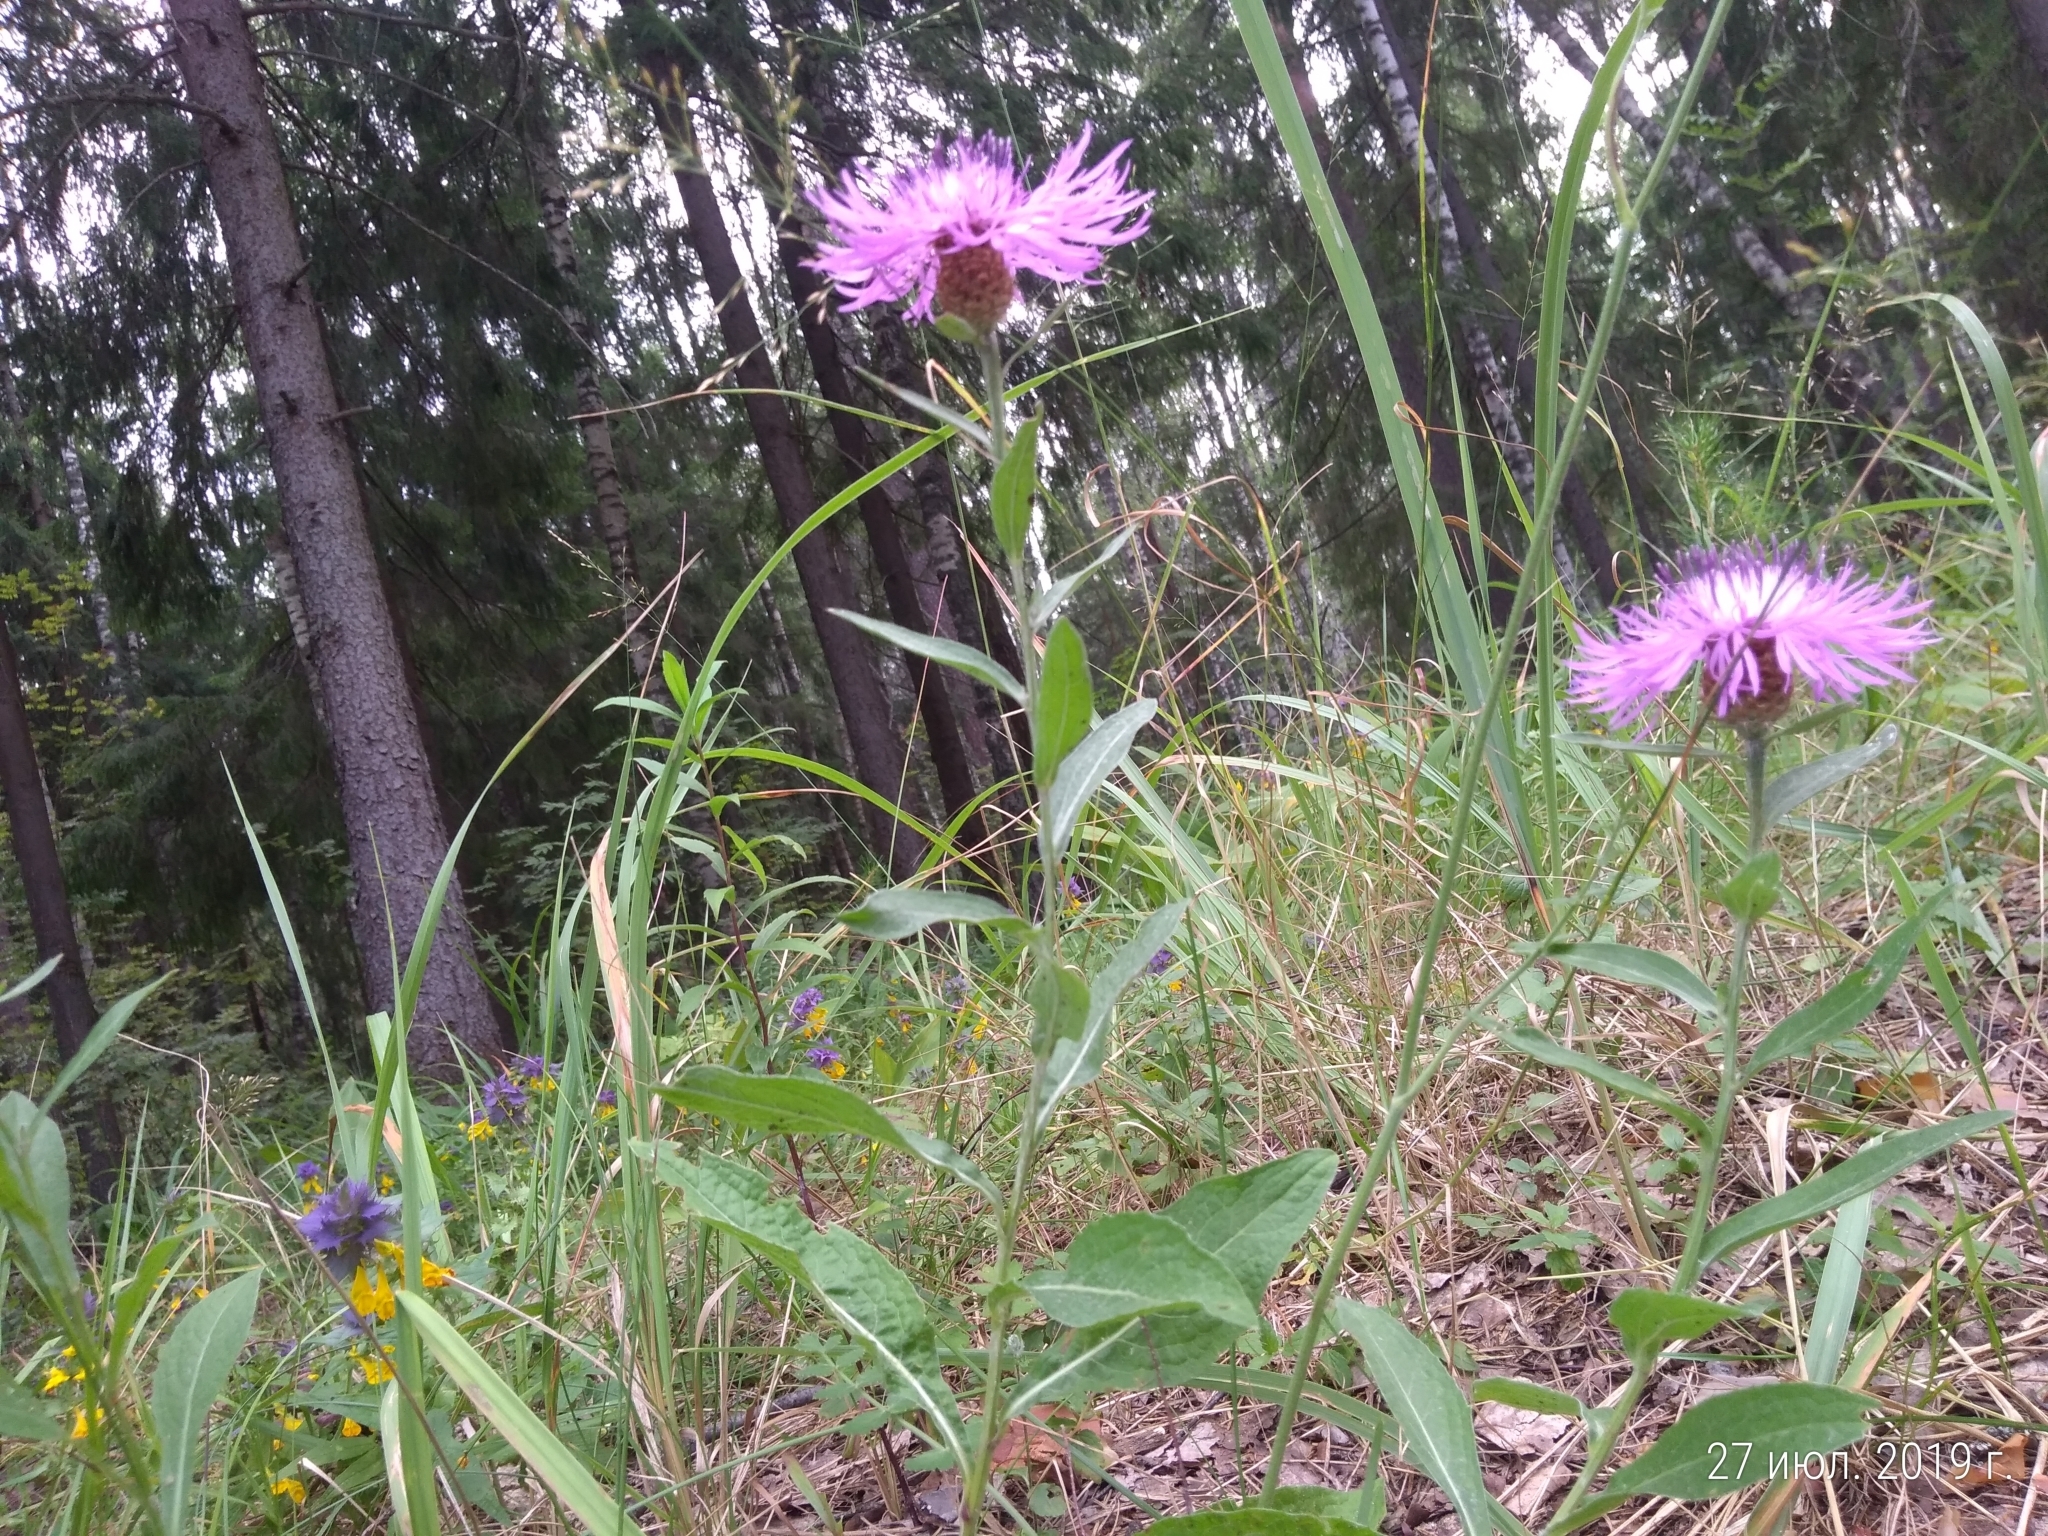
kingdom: Plantae
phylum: Tracheophyta
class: Magnoliopsida
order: Asterales
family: Asteraceae
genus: Centaurea
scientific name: Centaurea jacea
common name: Brown knapweed
